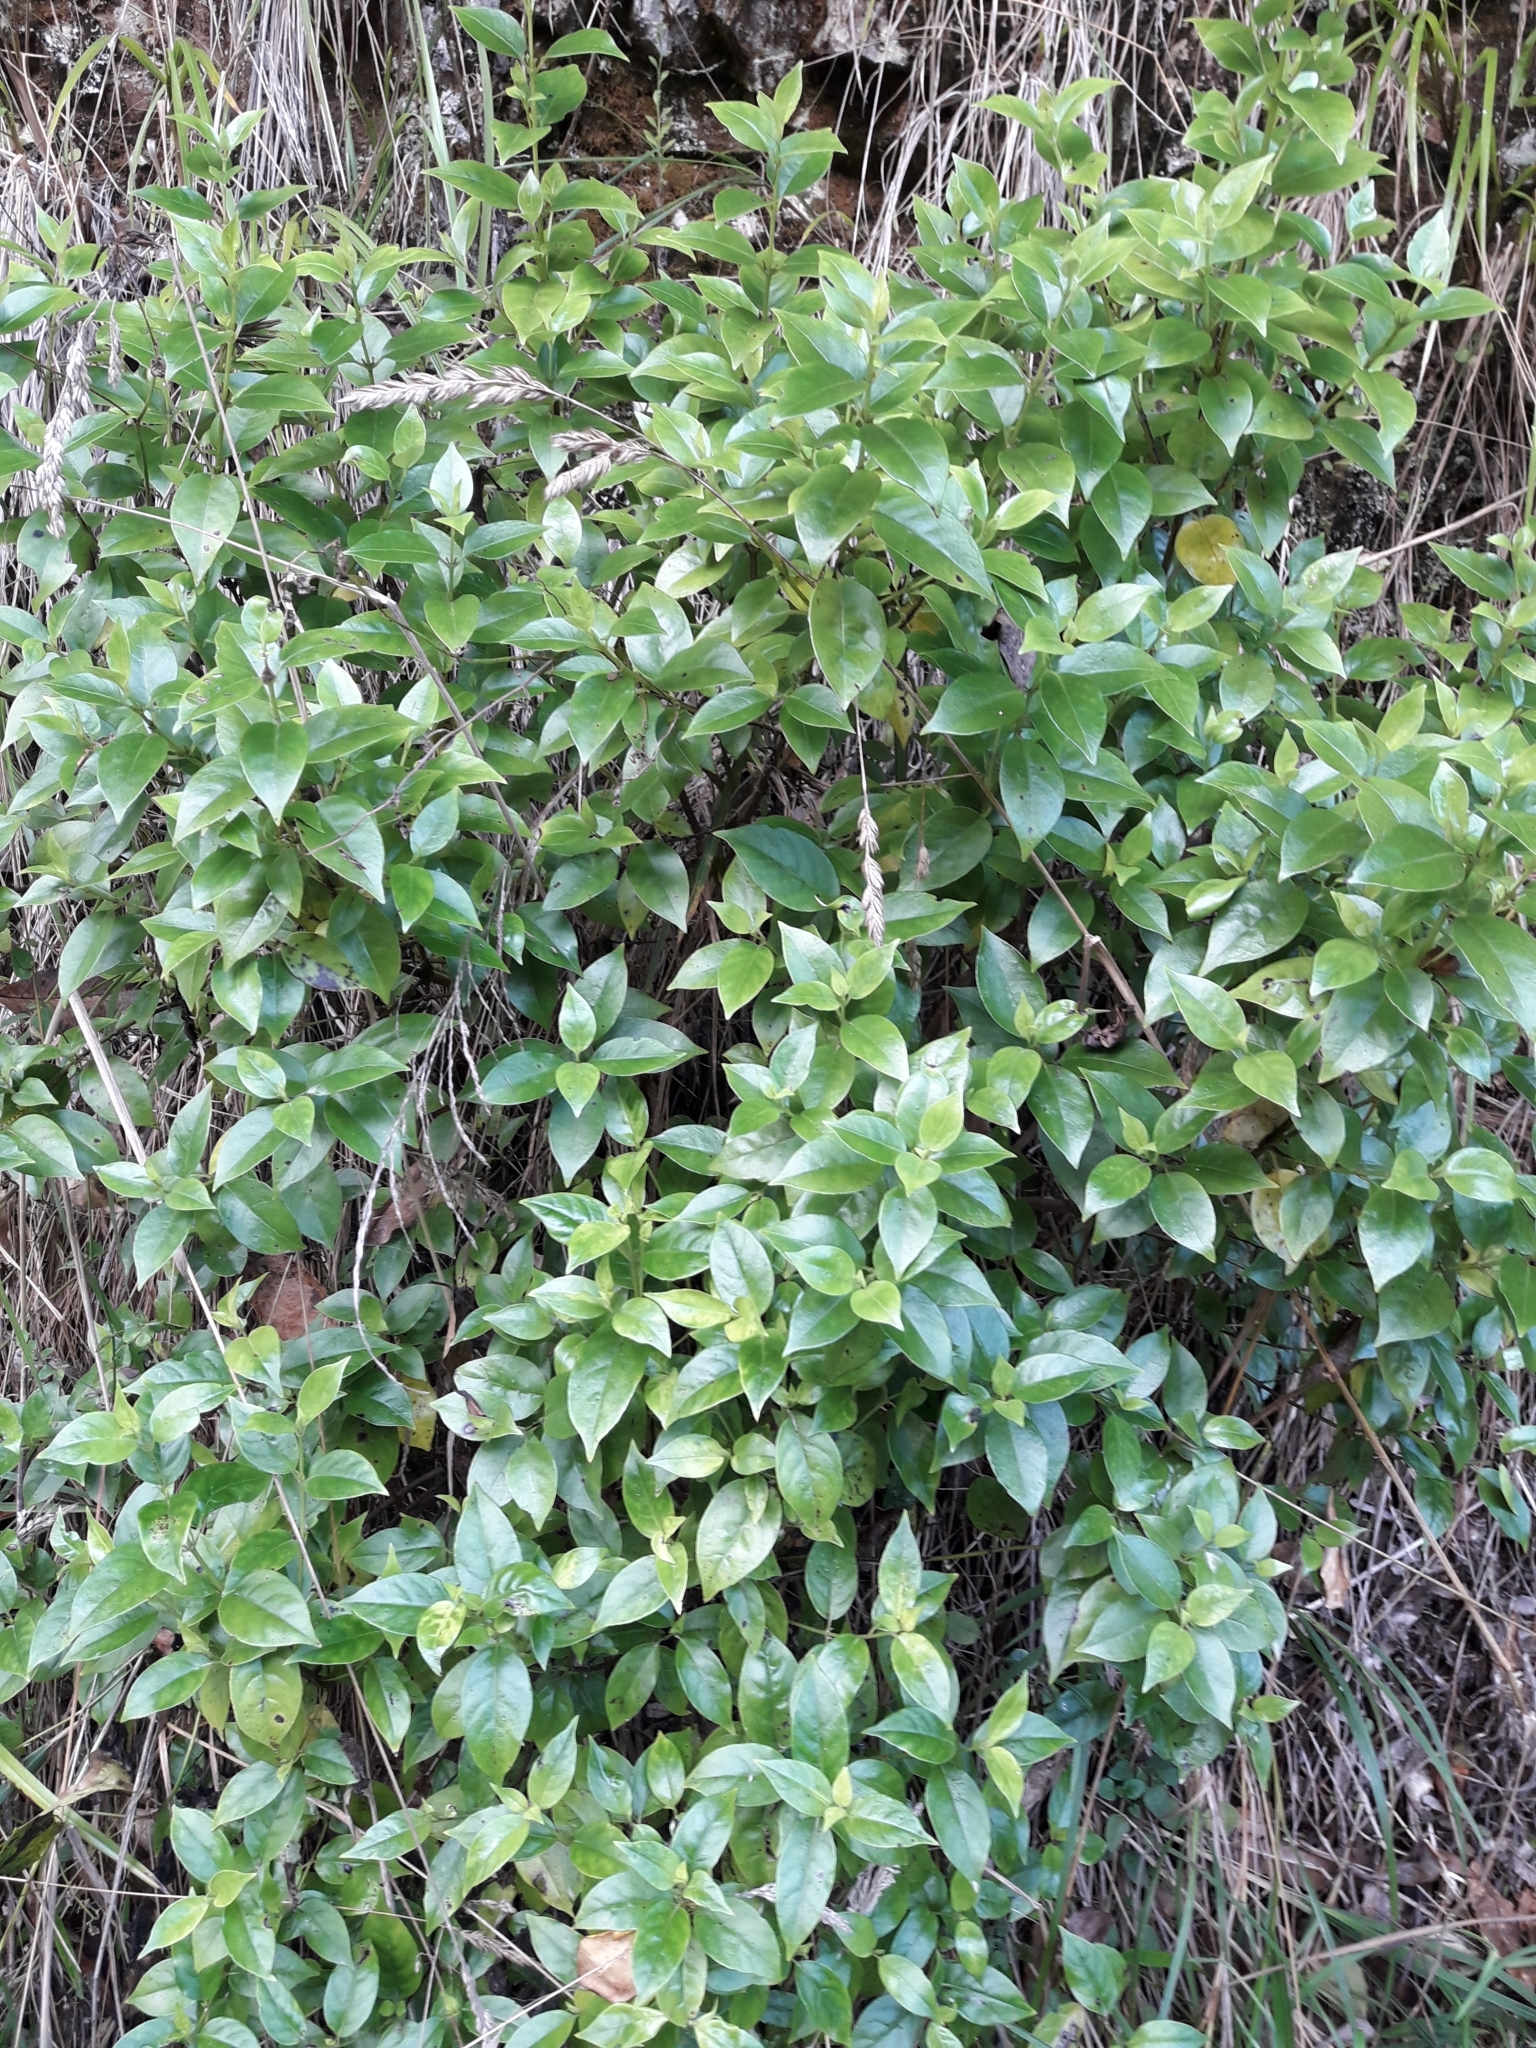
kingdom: Plantae
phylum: Tracheophyta
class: Magnoliopsida
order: Gentianales
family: Loganiaceae
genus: Geniostoma
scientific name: Geniostoma ligustrifolium
